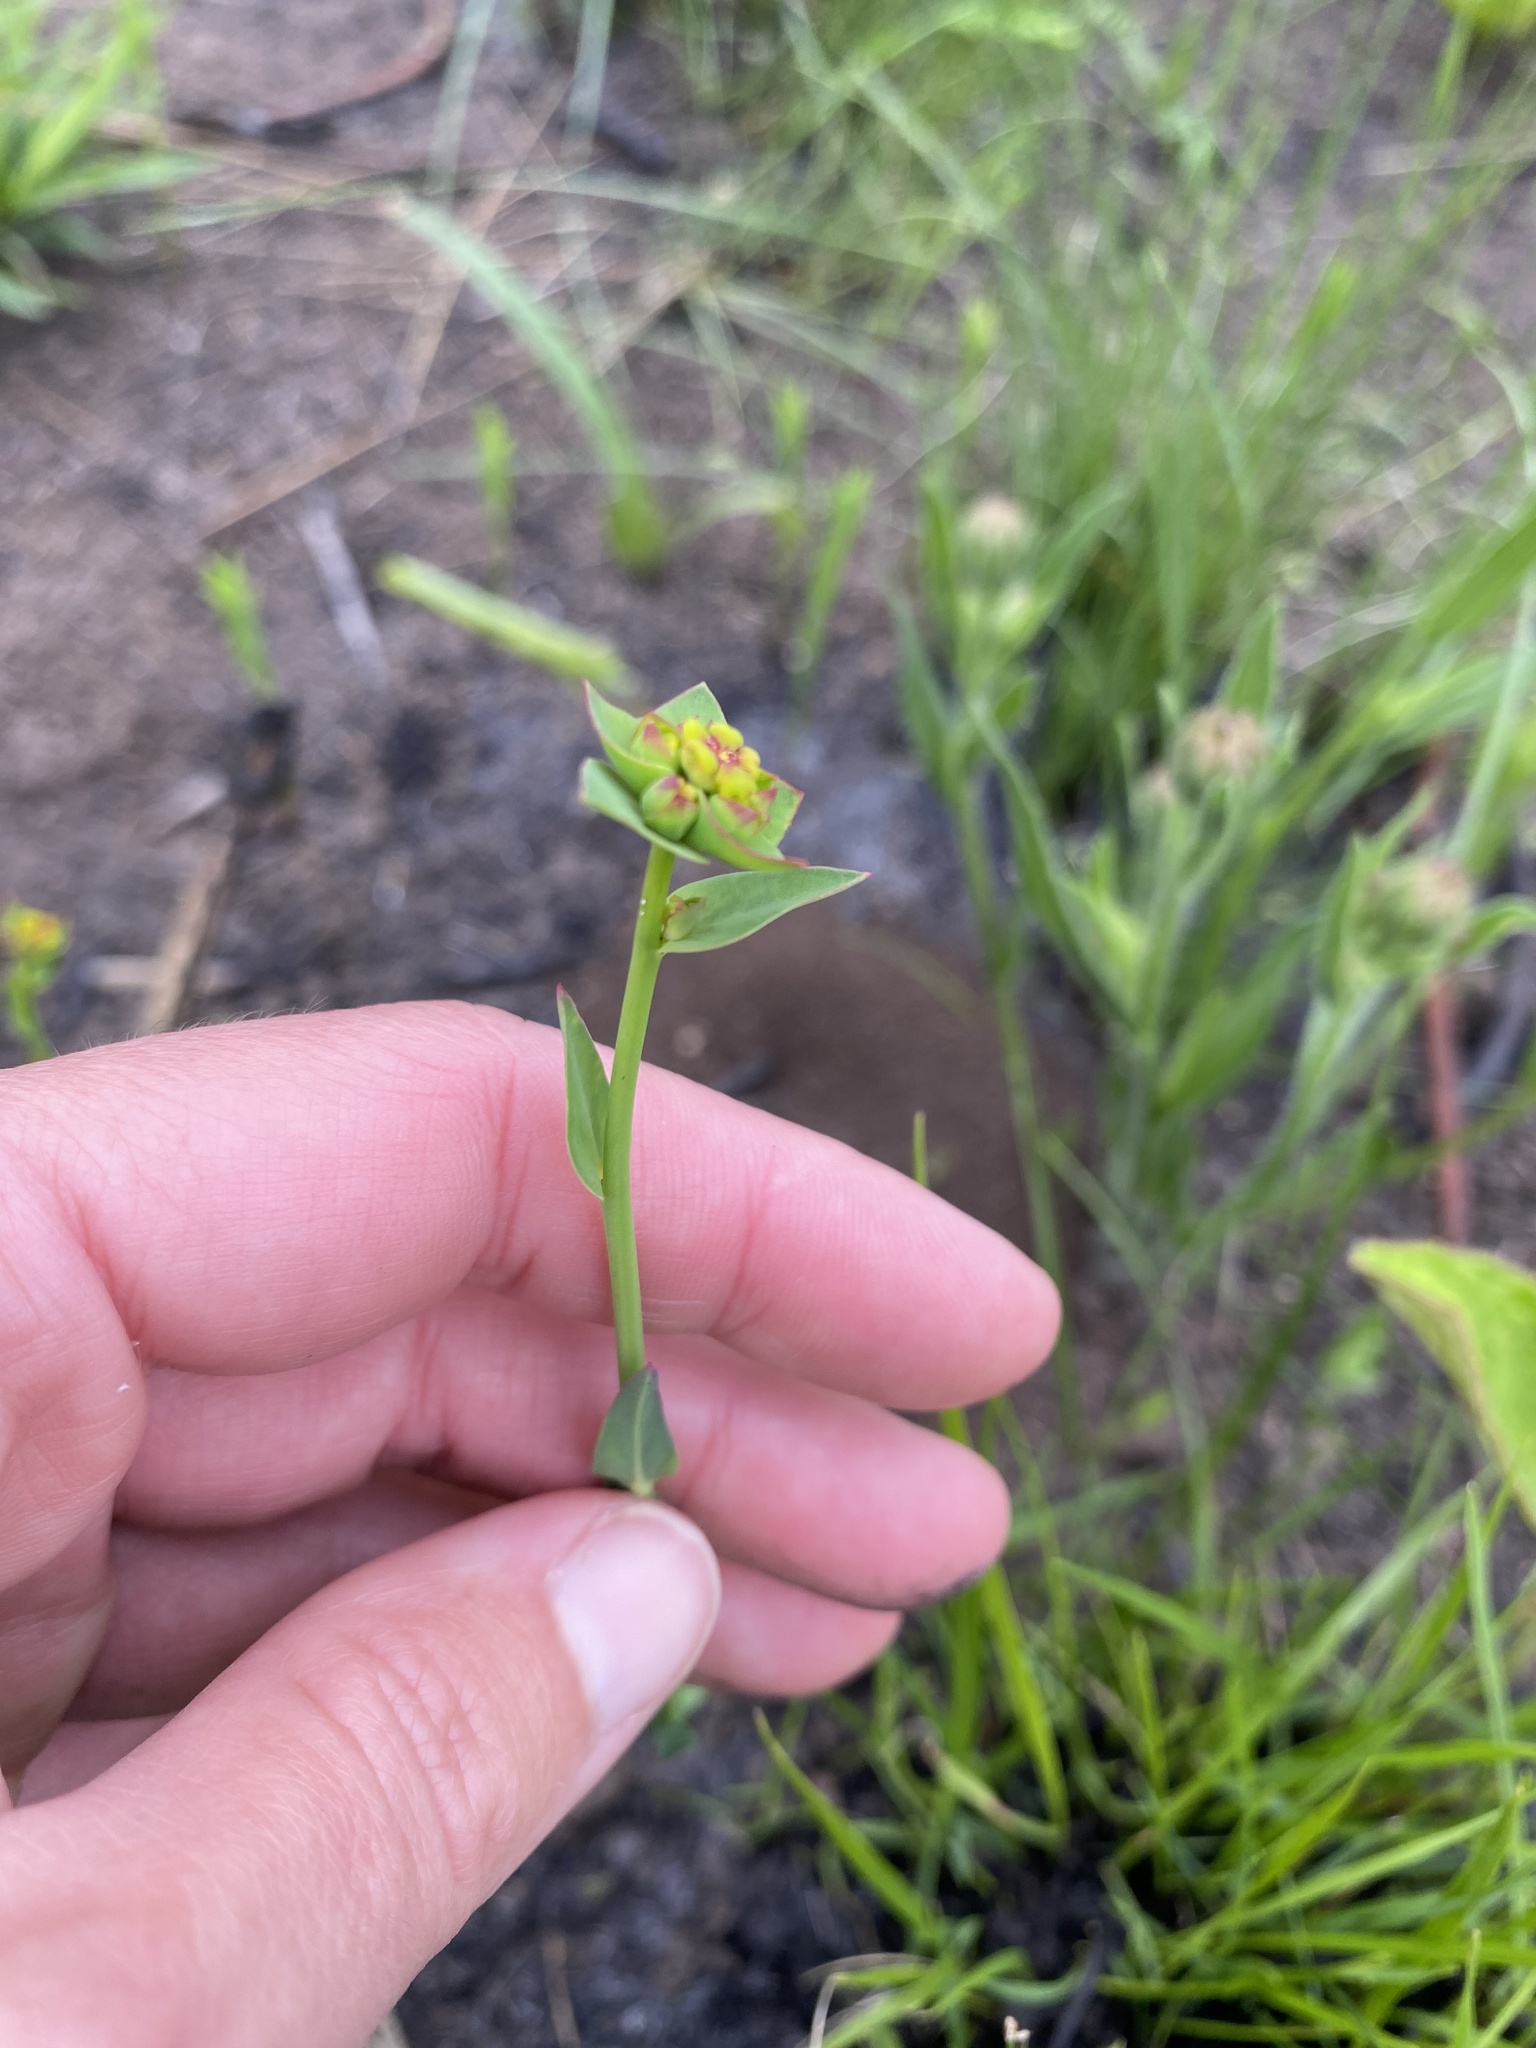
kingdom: Plantae
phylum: Tracheophyta
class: Magnoliopsida
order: Malpighiales
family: Euphorbiaceae
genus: Euphorbia
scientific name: Euphorbia striata
